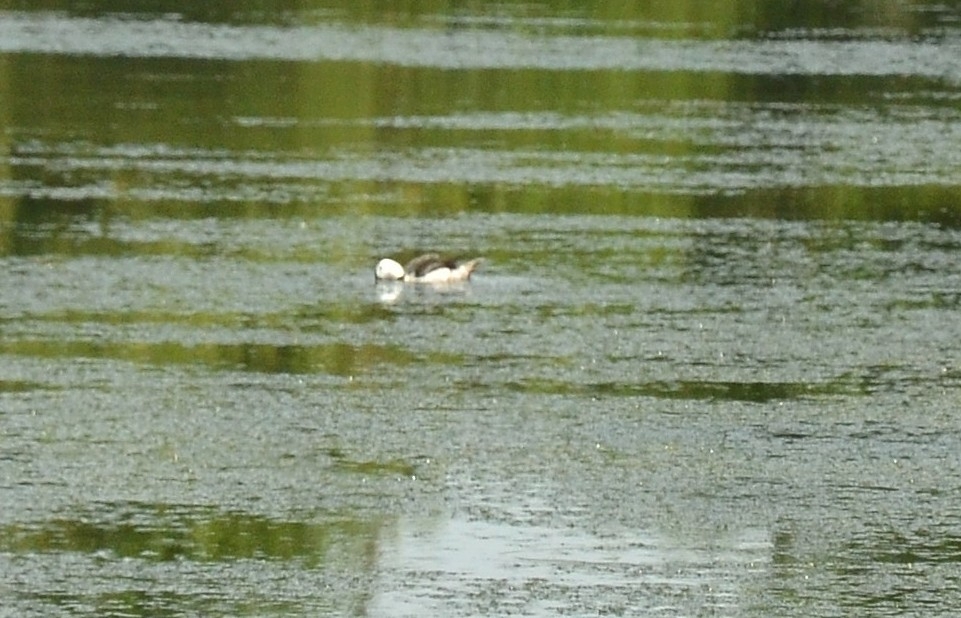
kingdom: Animalia
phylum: Chordata
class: Aves
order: Anseriformes
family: Anatidae
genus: Nettapus
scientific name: Nettapus coromandelianus
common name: Cotton pygmy-goose
